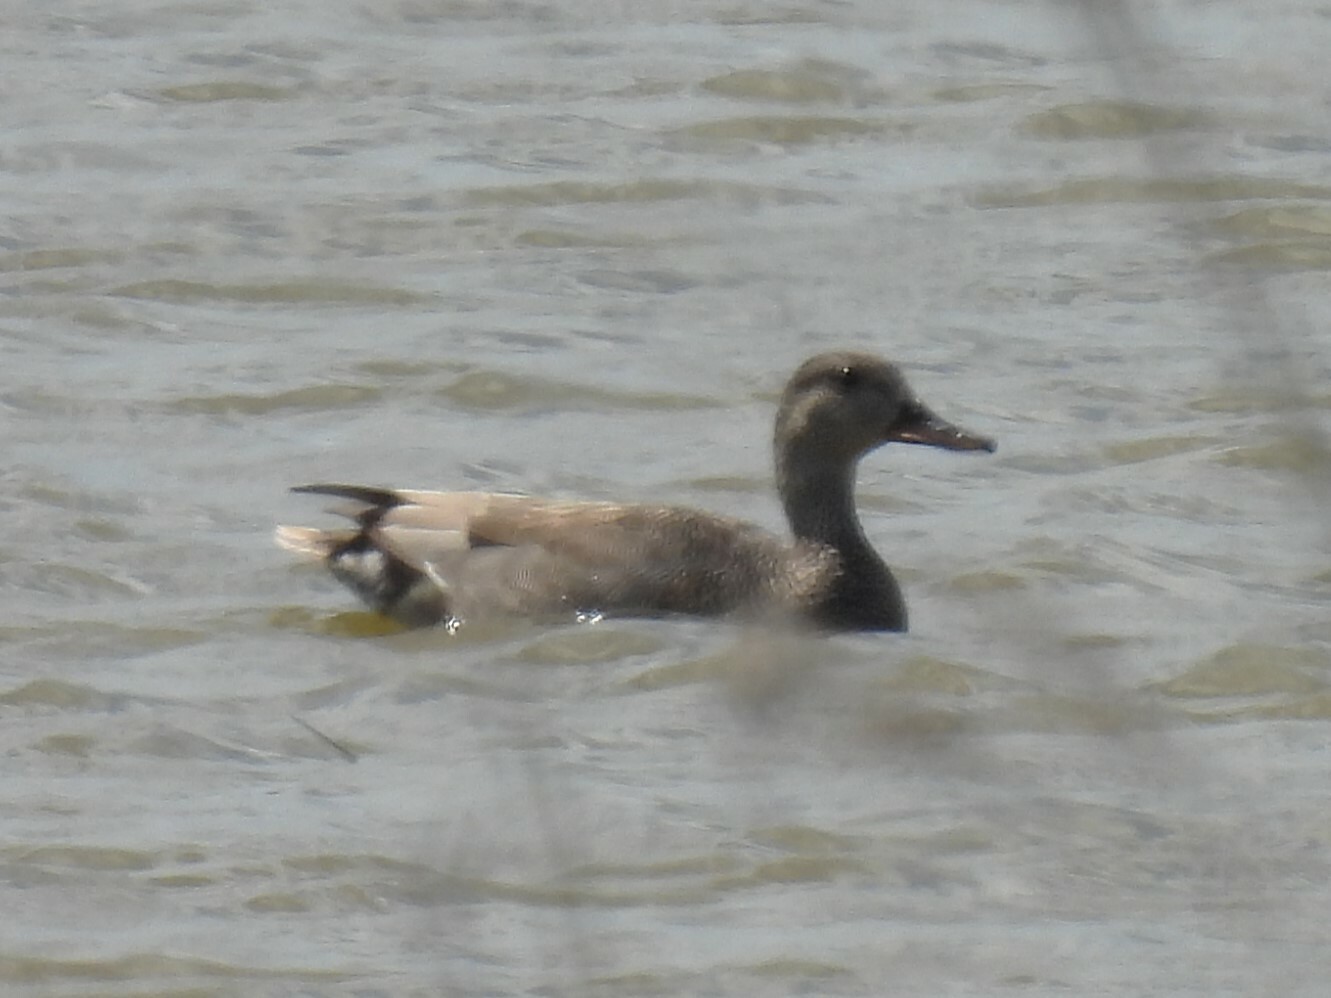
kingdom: Animalia
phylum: Chordata
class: Aves
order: Anseriformes
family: Anatidae
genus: Mareca
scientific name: Mareca strepera
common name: Gadwall
